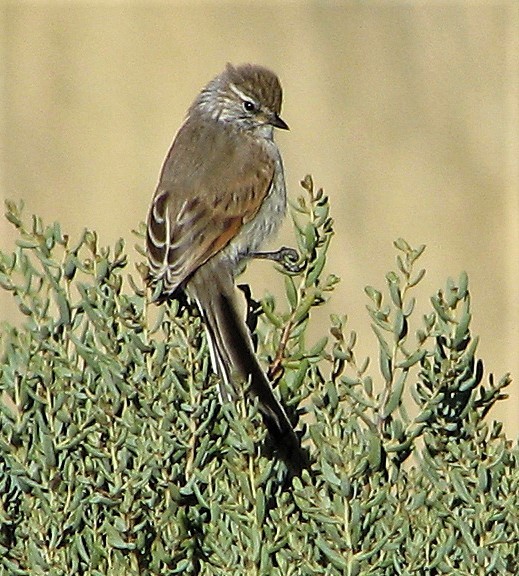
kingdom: Animalia
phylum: Chordata
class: Aves
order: Passeriformes
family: Furnariidae
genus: Leptasthenura
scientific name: Leptasthenura aegithaloides
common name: Plain-mantled tit-spinetail
